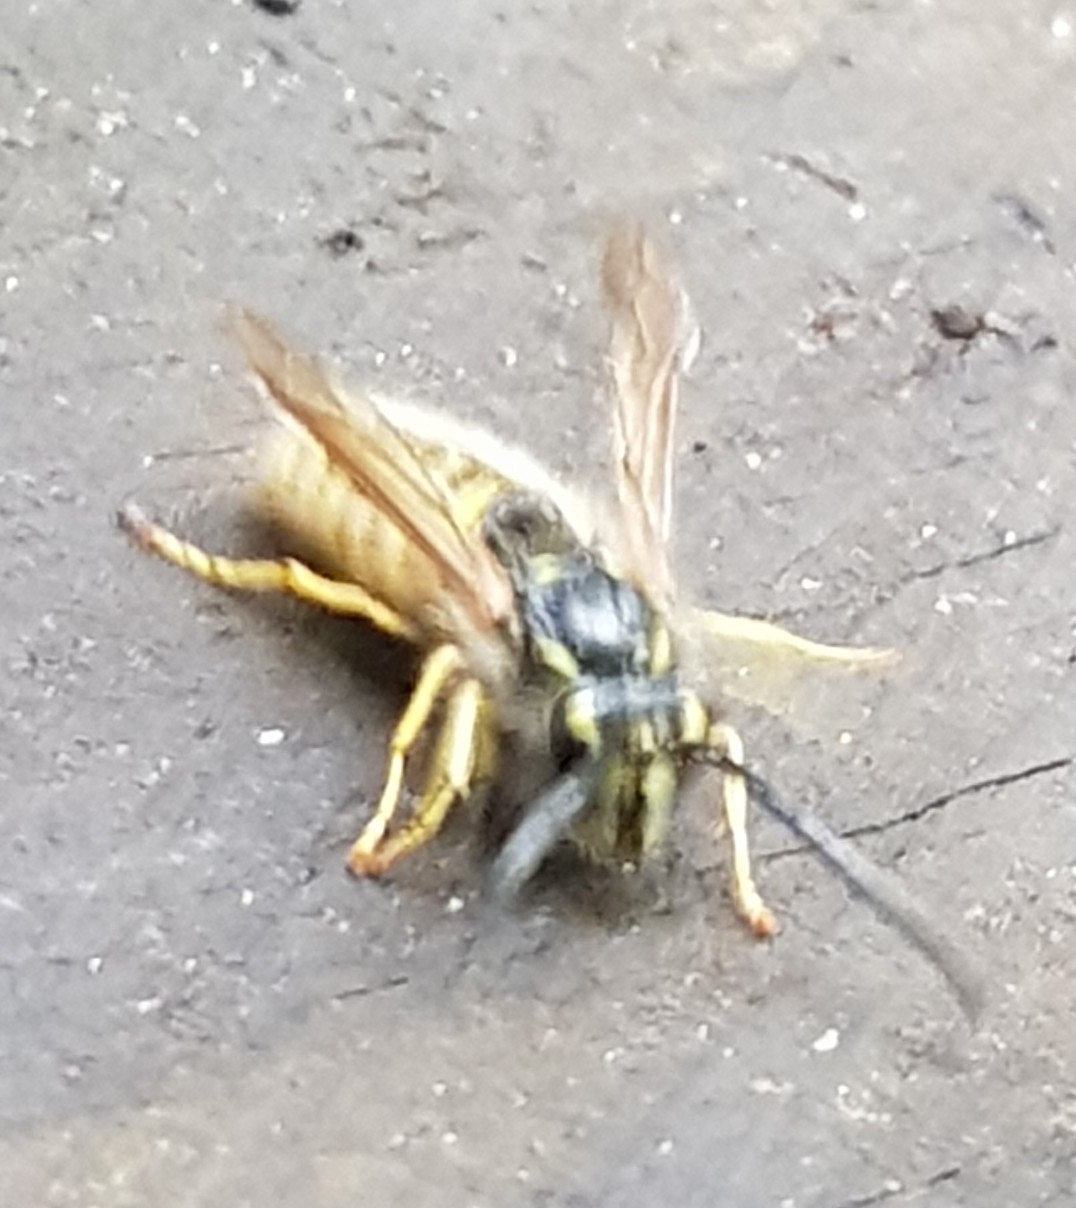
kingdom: Animalia
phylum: Arthropoda
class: Insecta
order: Hymenoptera
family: Vespidae
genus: Vespula
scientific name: Vespula vulgaris
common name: Common wasp
